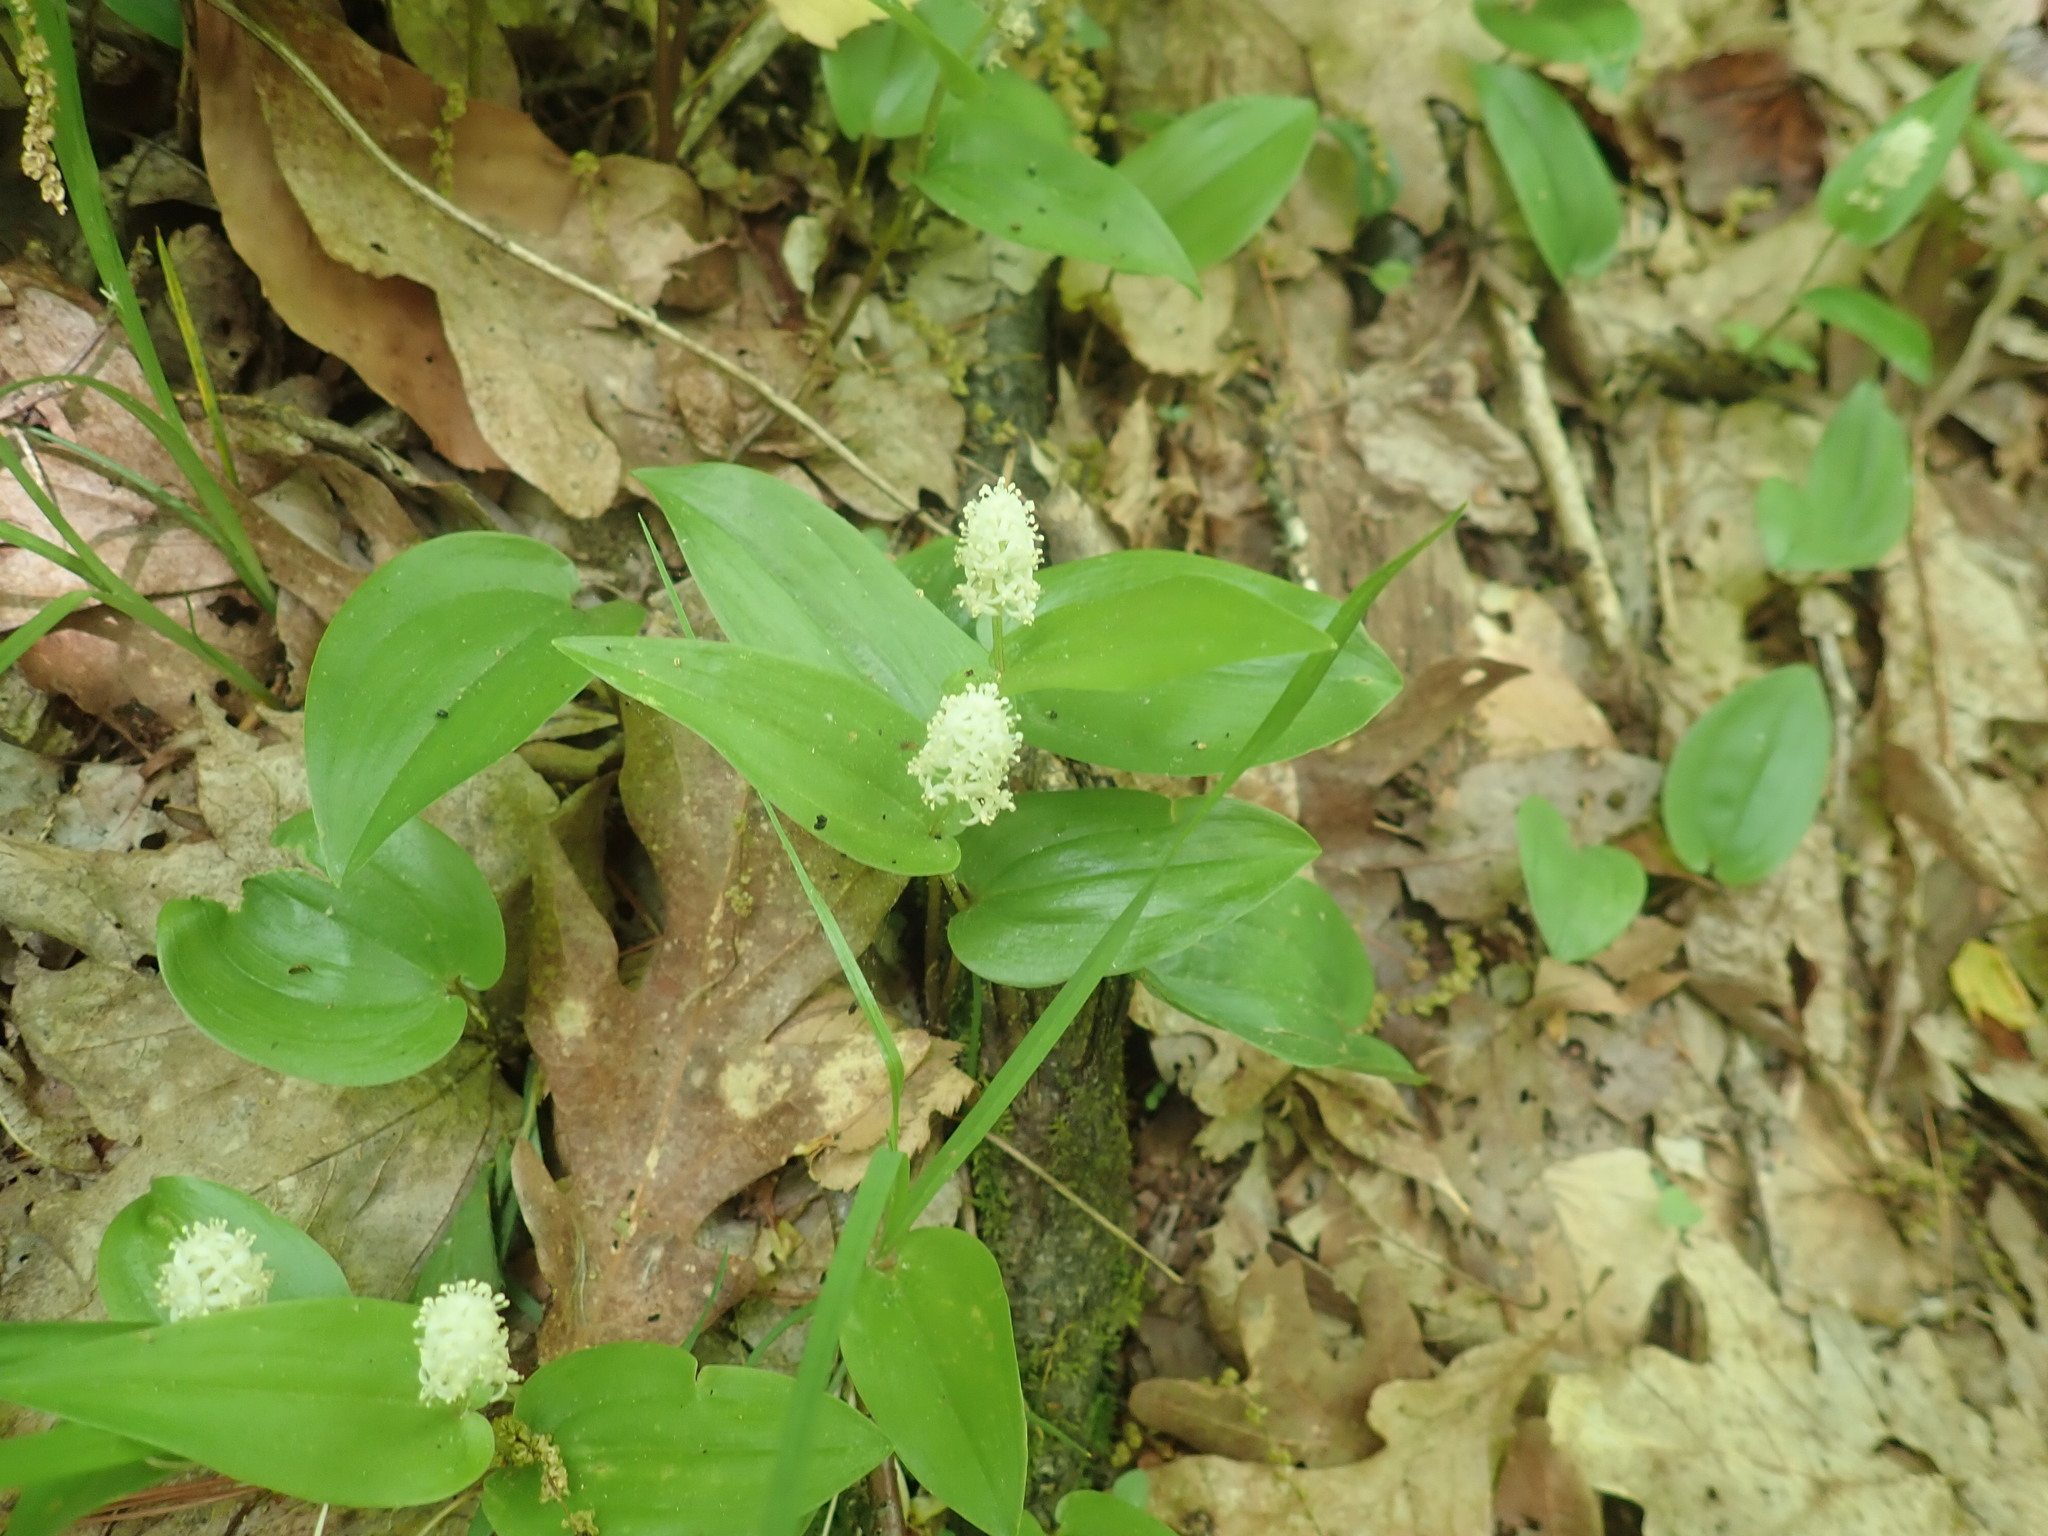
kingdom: Plantae
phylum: Tracheophyta
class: Liliopsida
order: Asparagales
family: Asparagaceae
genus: Maianthemum
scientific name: Maianthemum canadense
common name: False lily-of-the-valley
